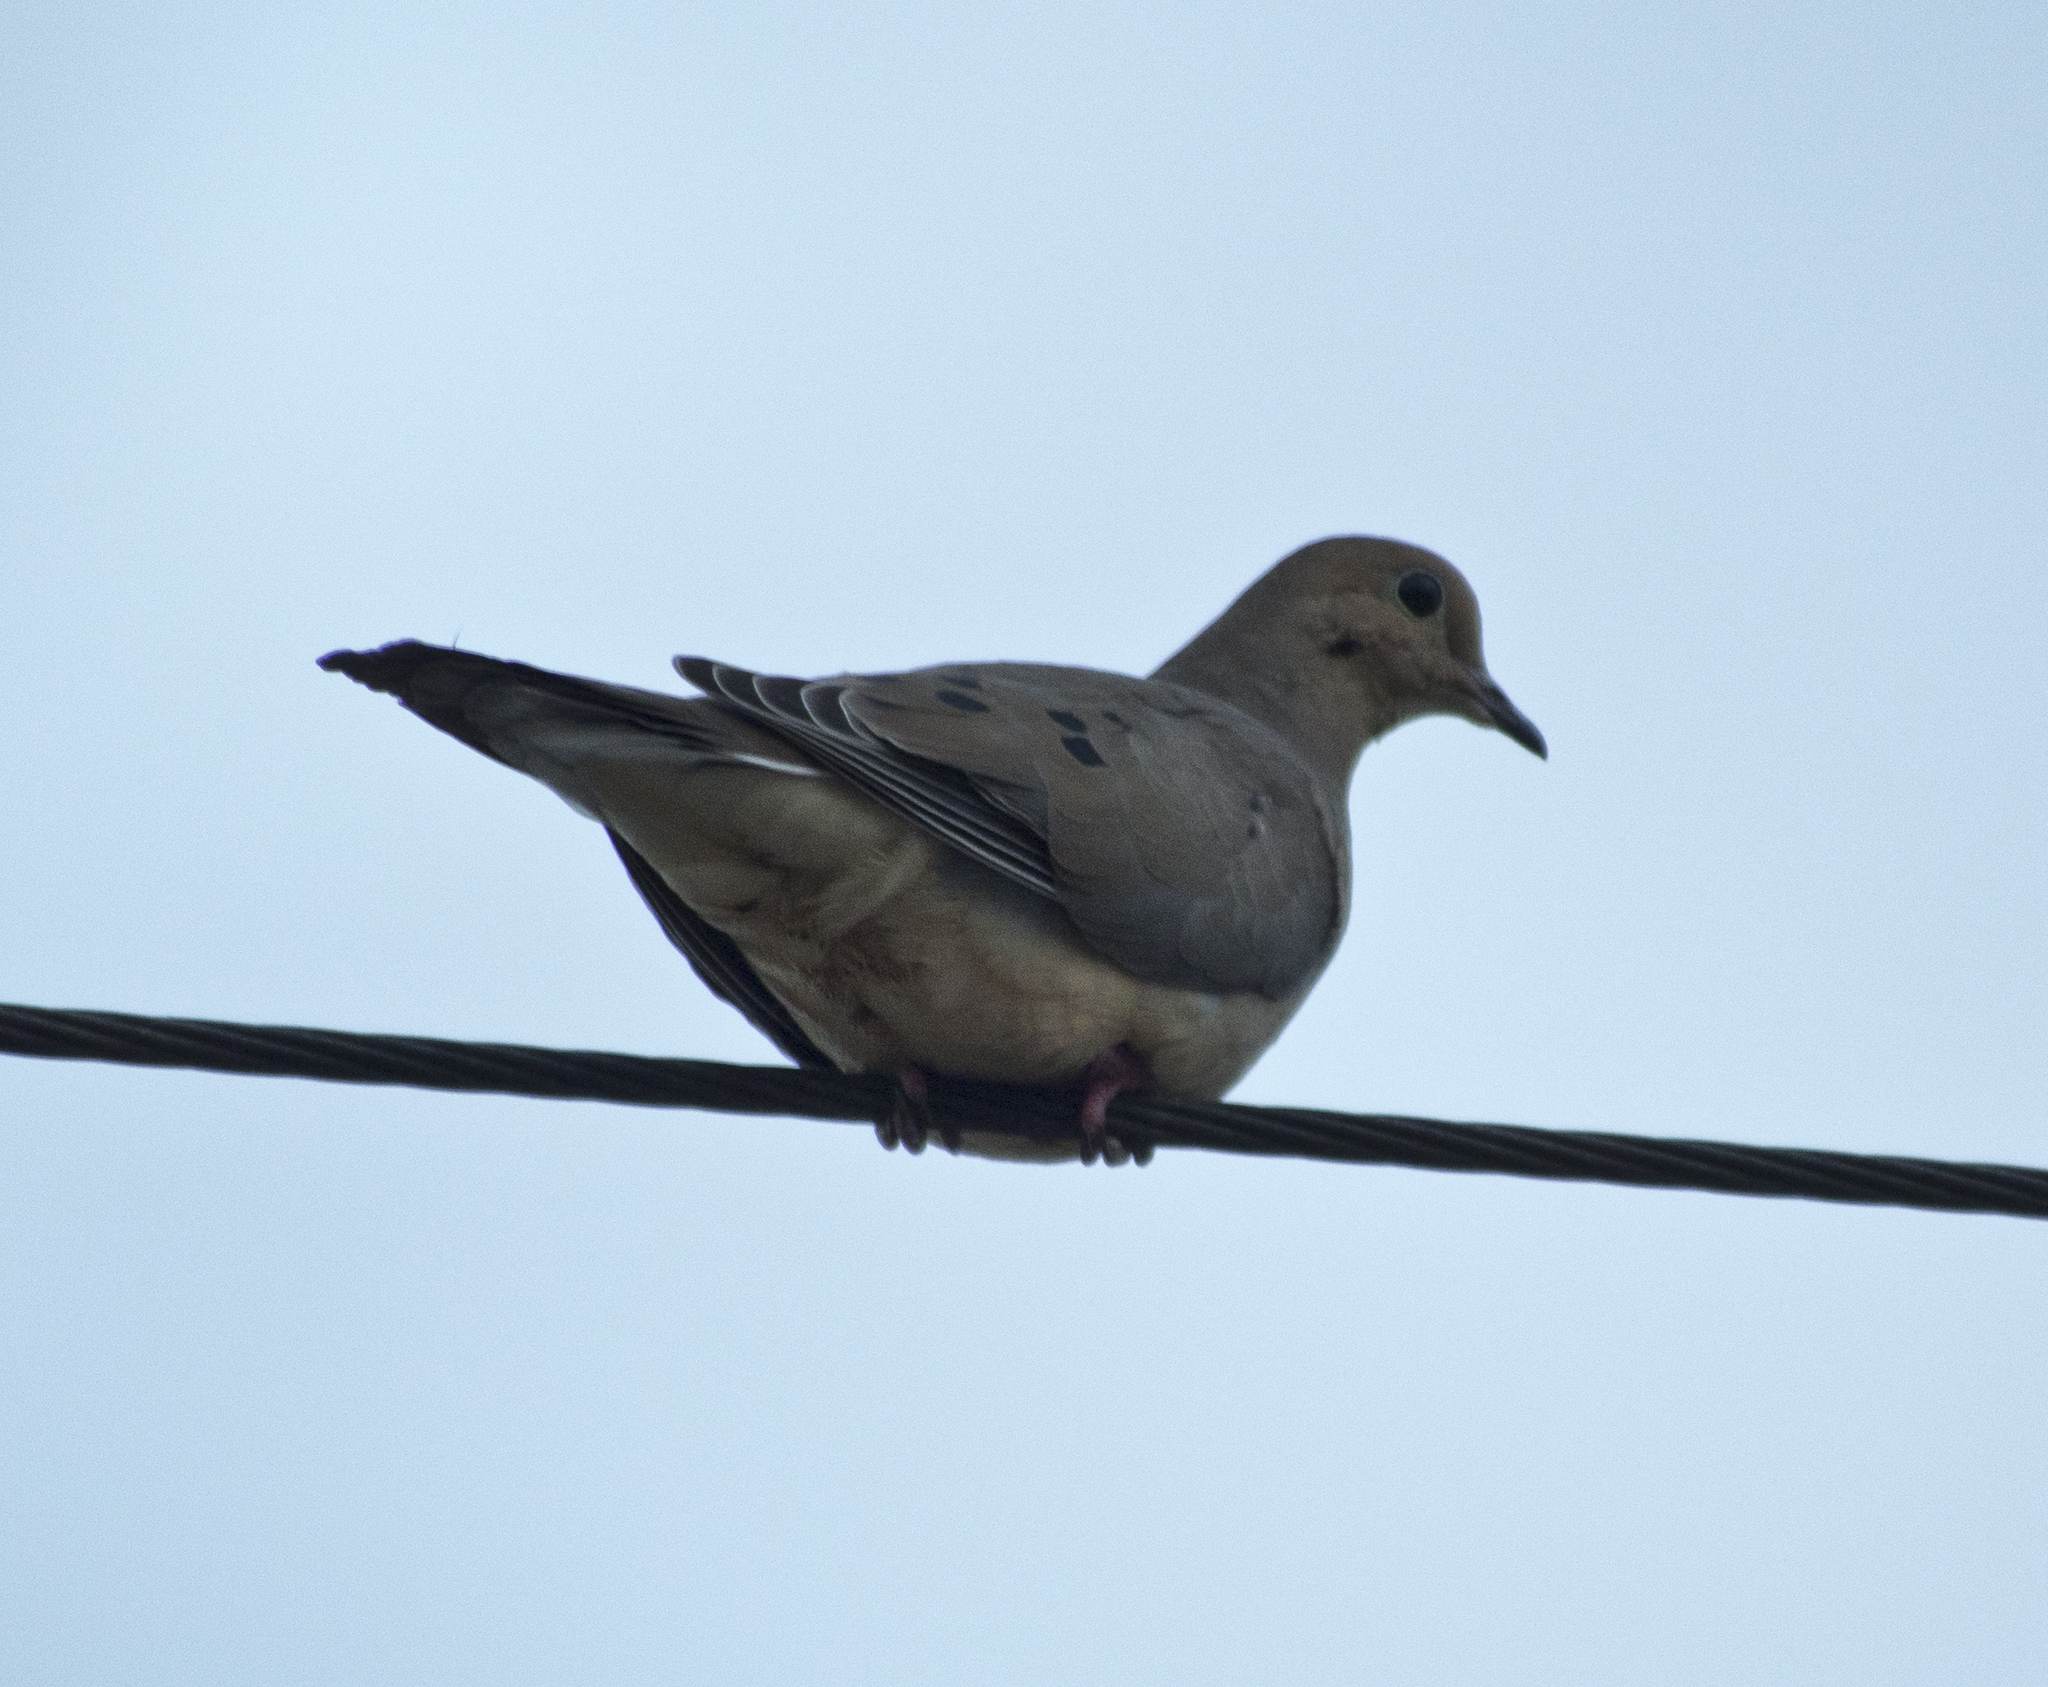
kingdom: Animalia
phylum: Chordata
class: Aves
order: Columbiformes
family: Columbidae
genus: Zenaida
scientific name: Zenaida macroura
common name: Mourning dove
